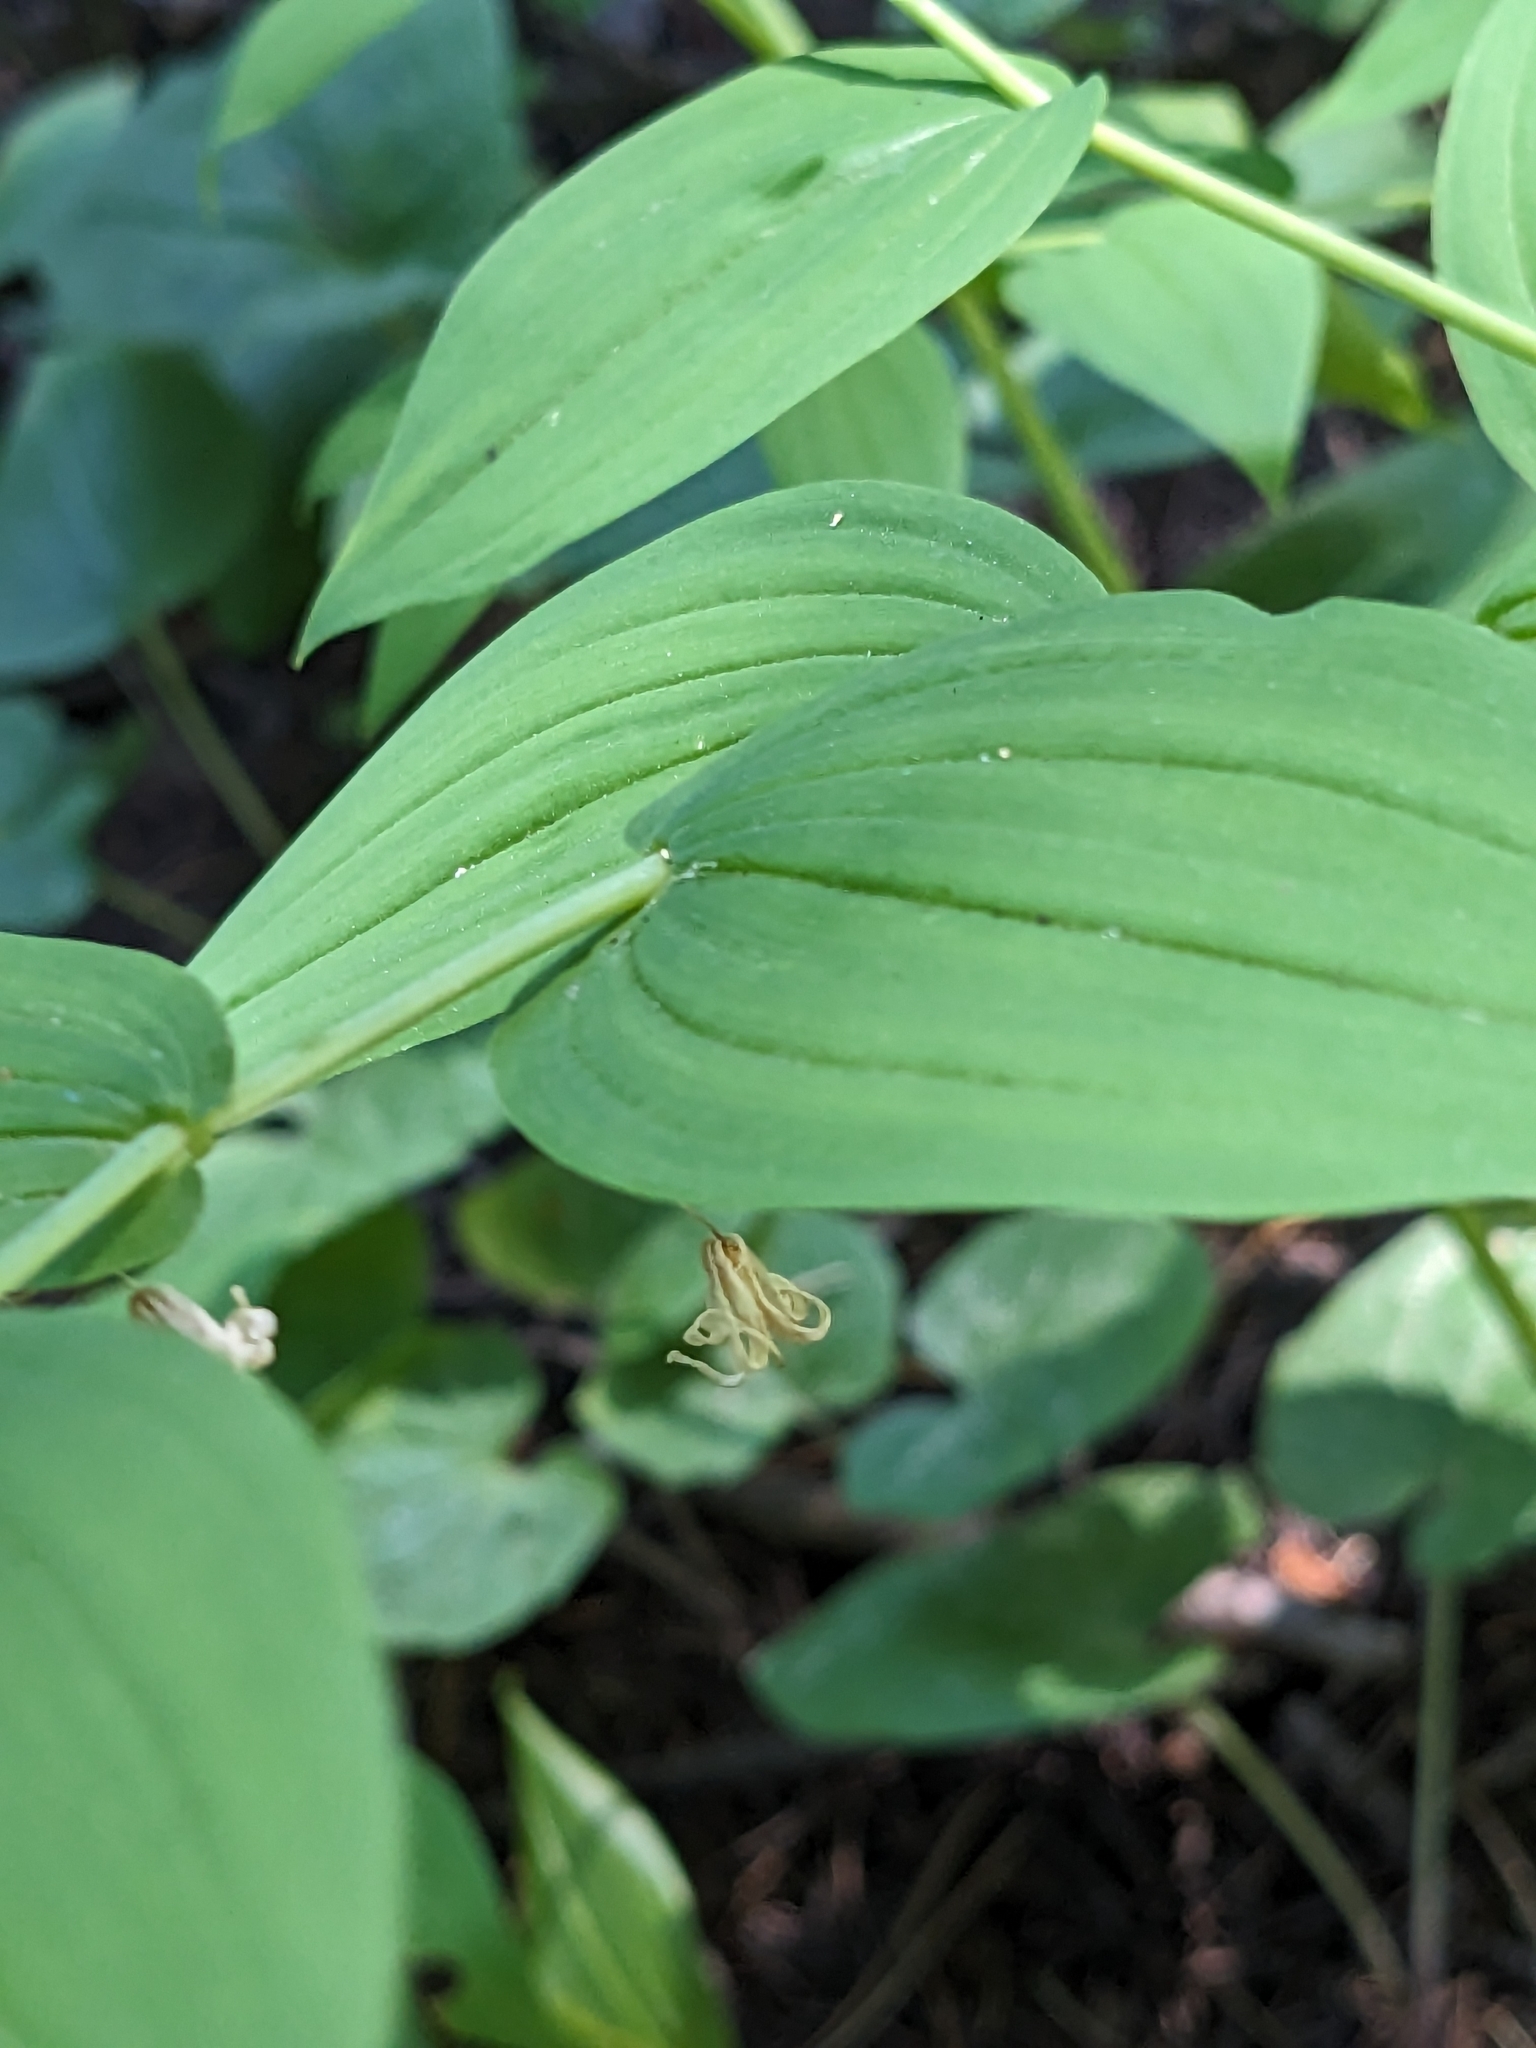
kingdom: Plantae
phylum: Tracheophyta
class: Liliopsida
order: Liliales
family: Liliaceae
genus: Streptopus
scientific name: Streptopus amplexifolius
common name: Clasp twisted stalk
